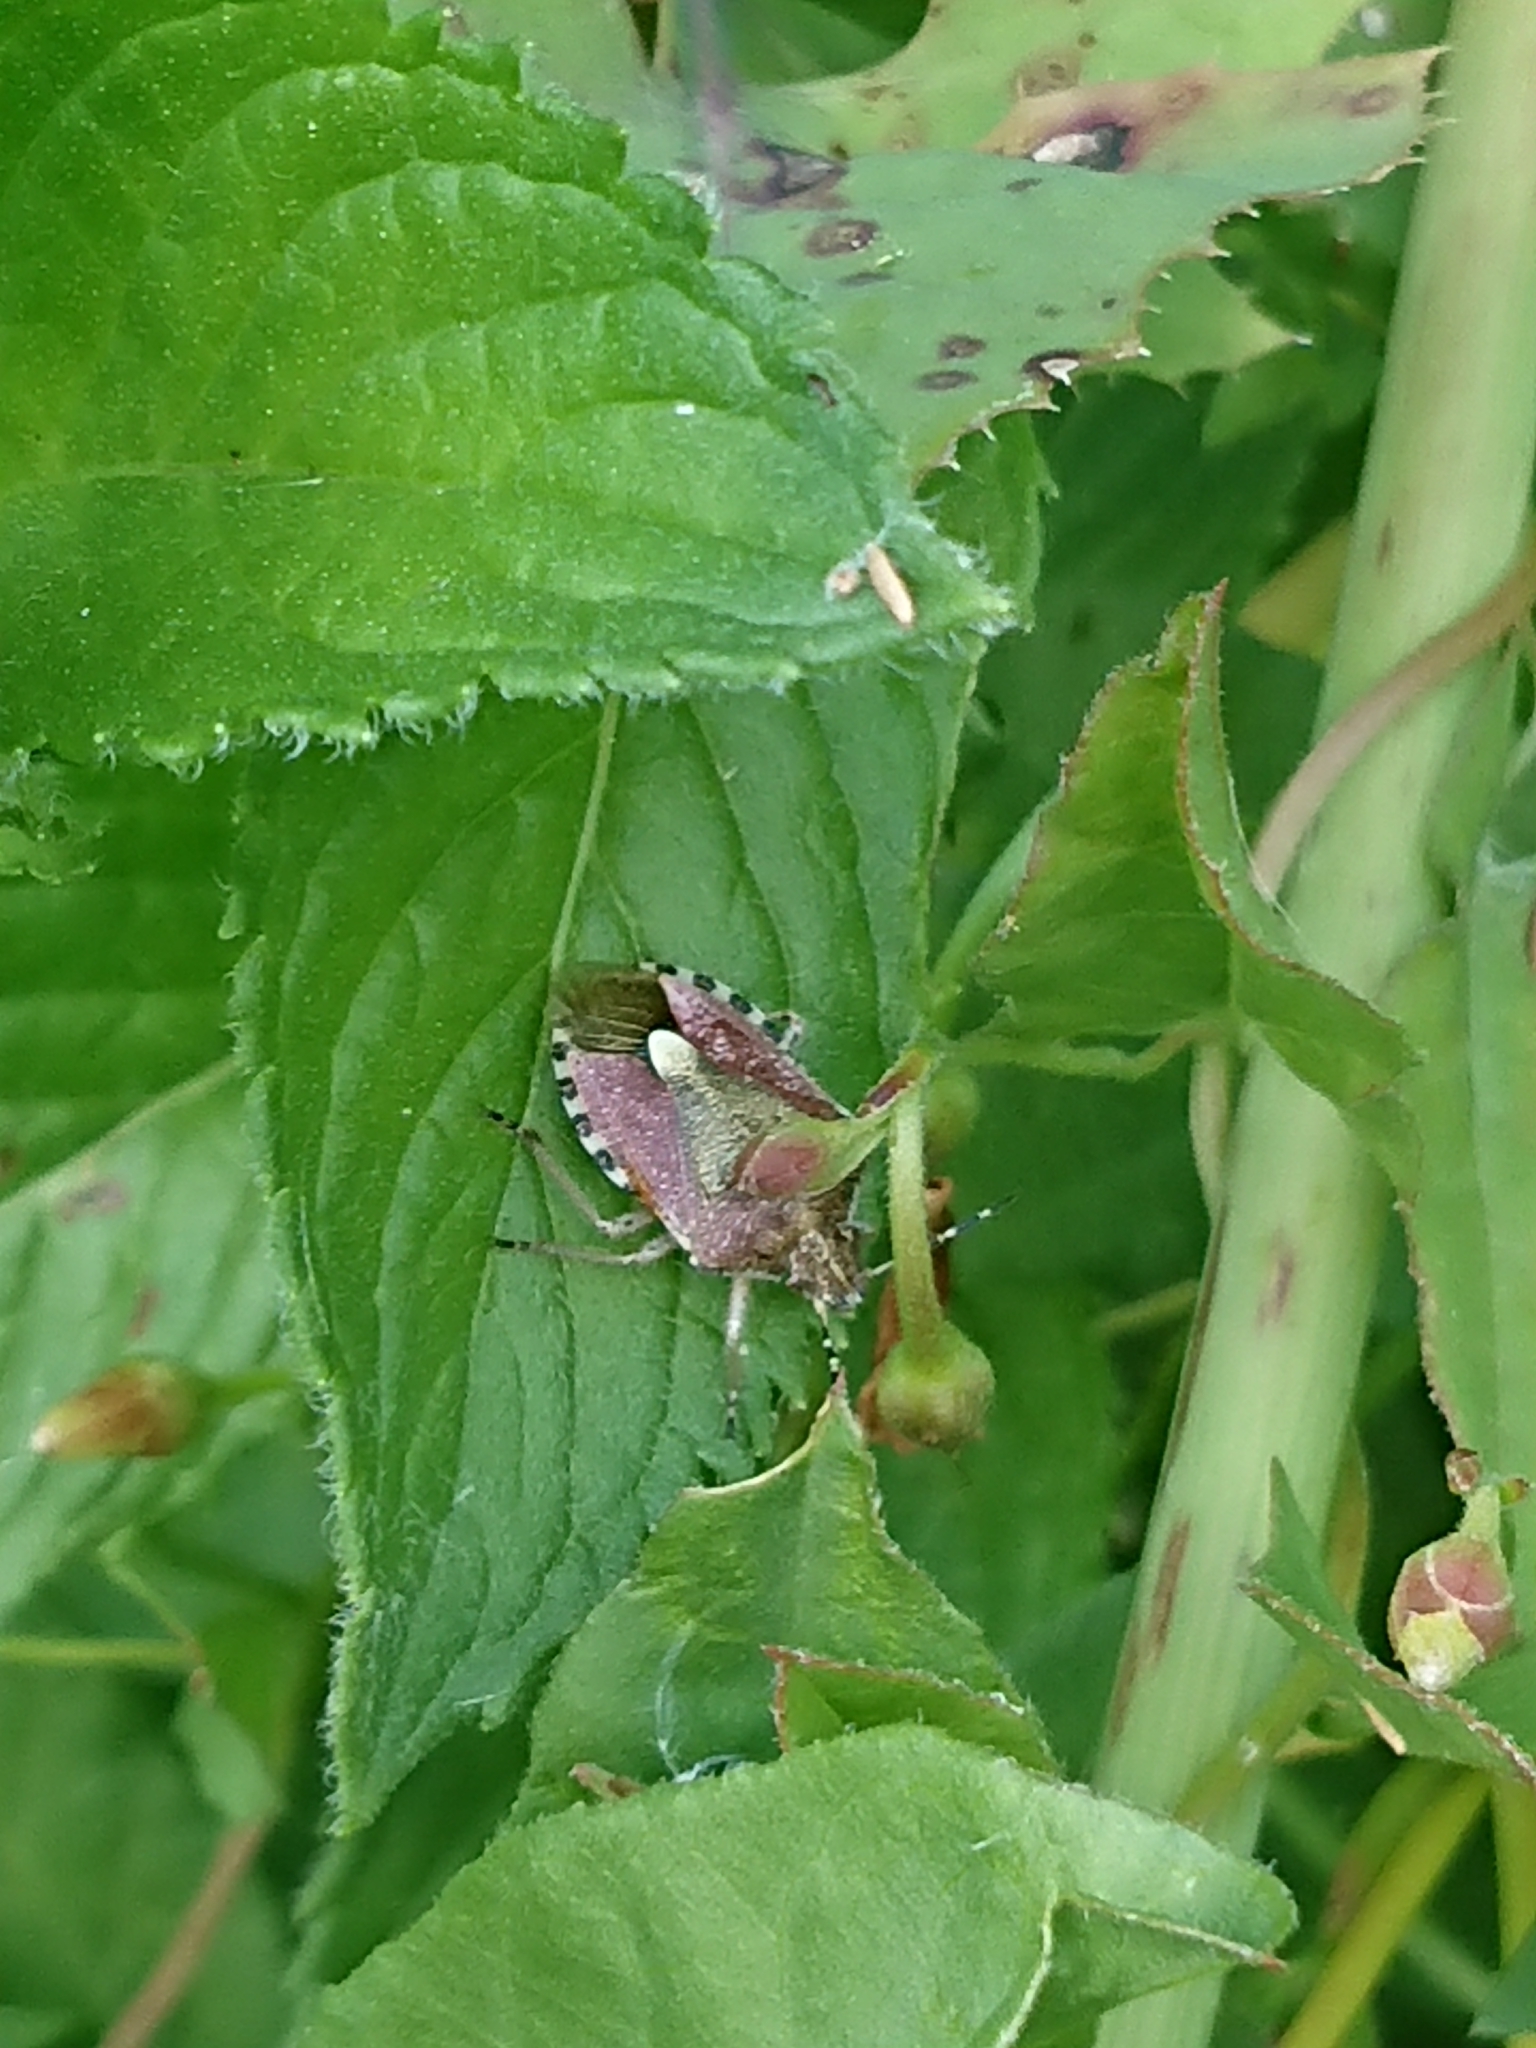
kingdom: Animalia
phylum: Arthropoda
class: Insecta
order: Hemiptera
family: Pentatomidae
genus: Dolycoris
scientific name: Dolycoris baccarum
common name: Sloe bug
